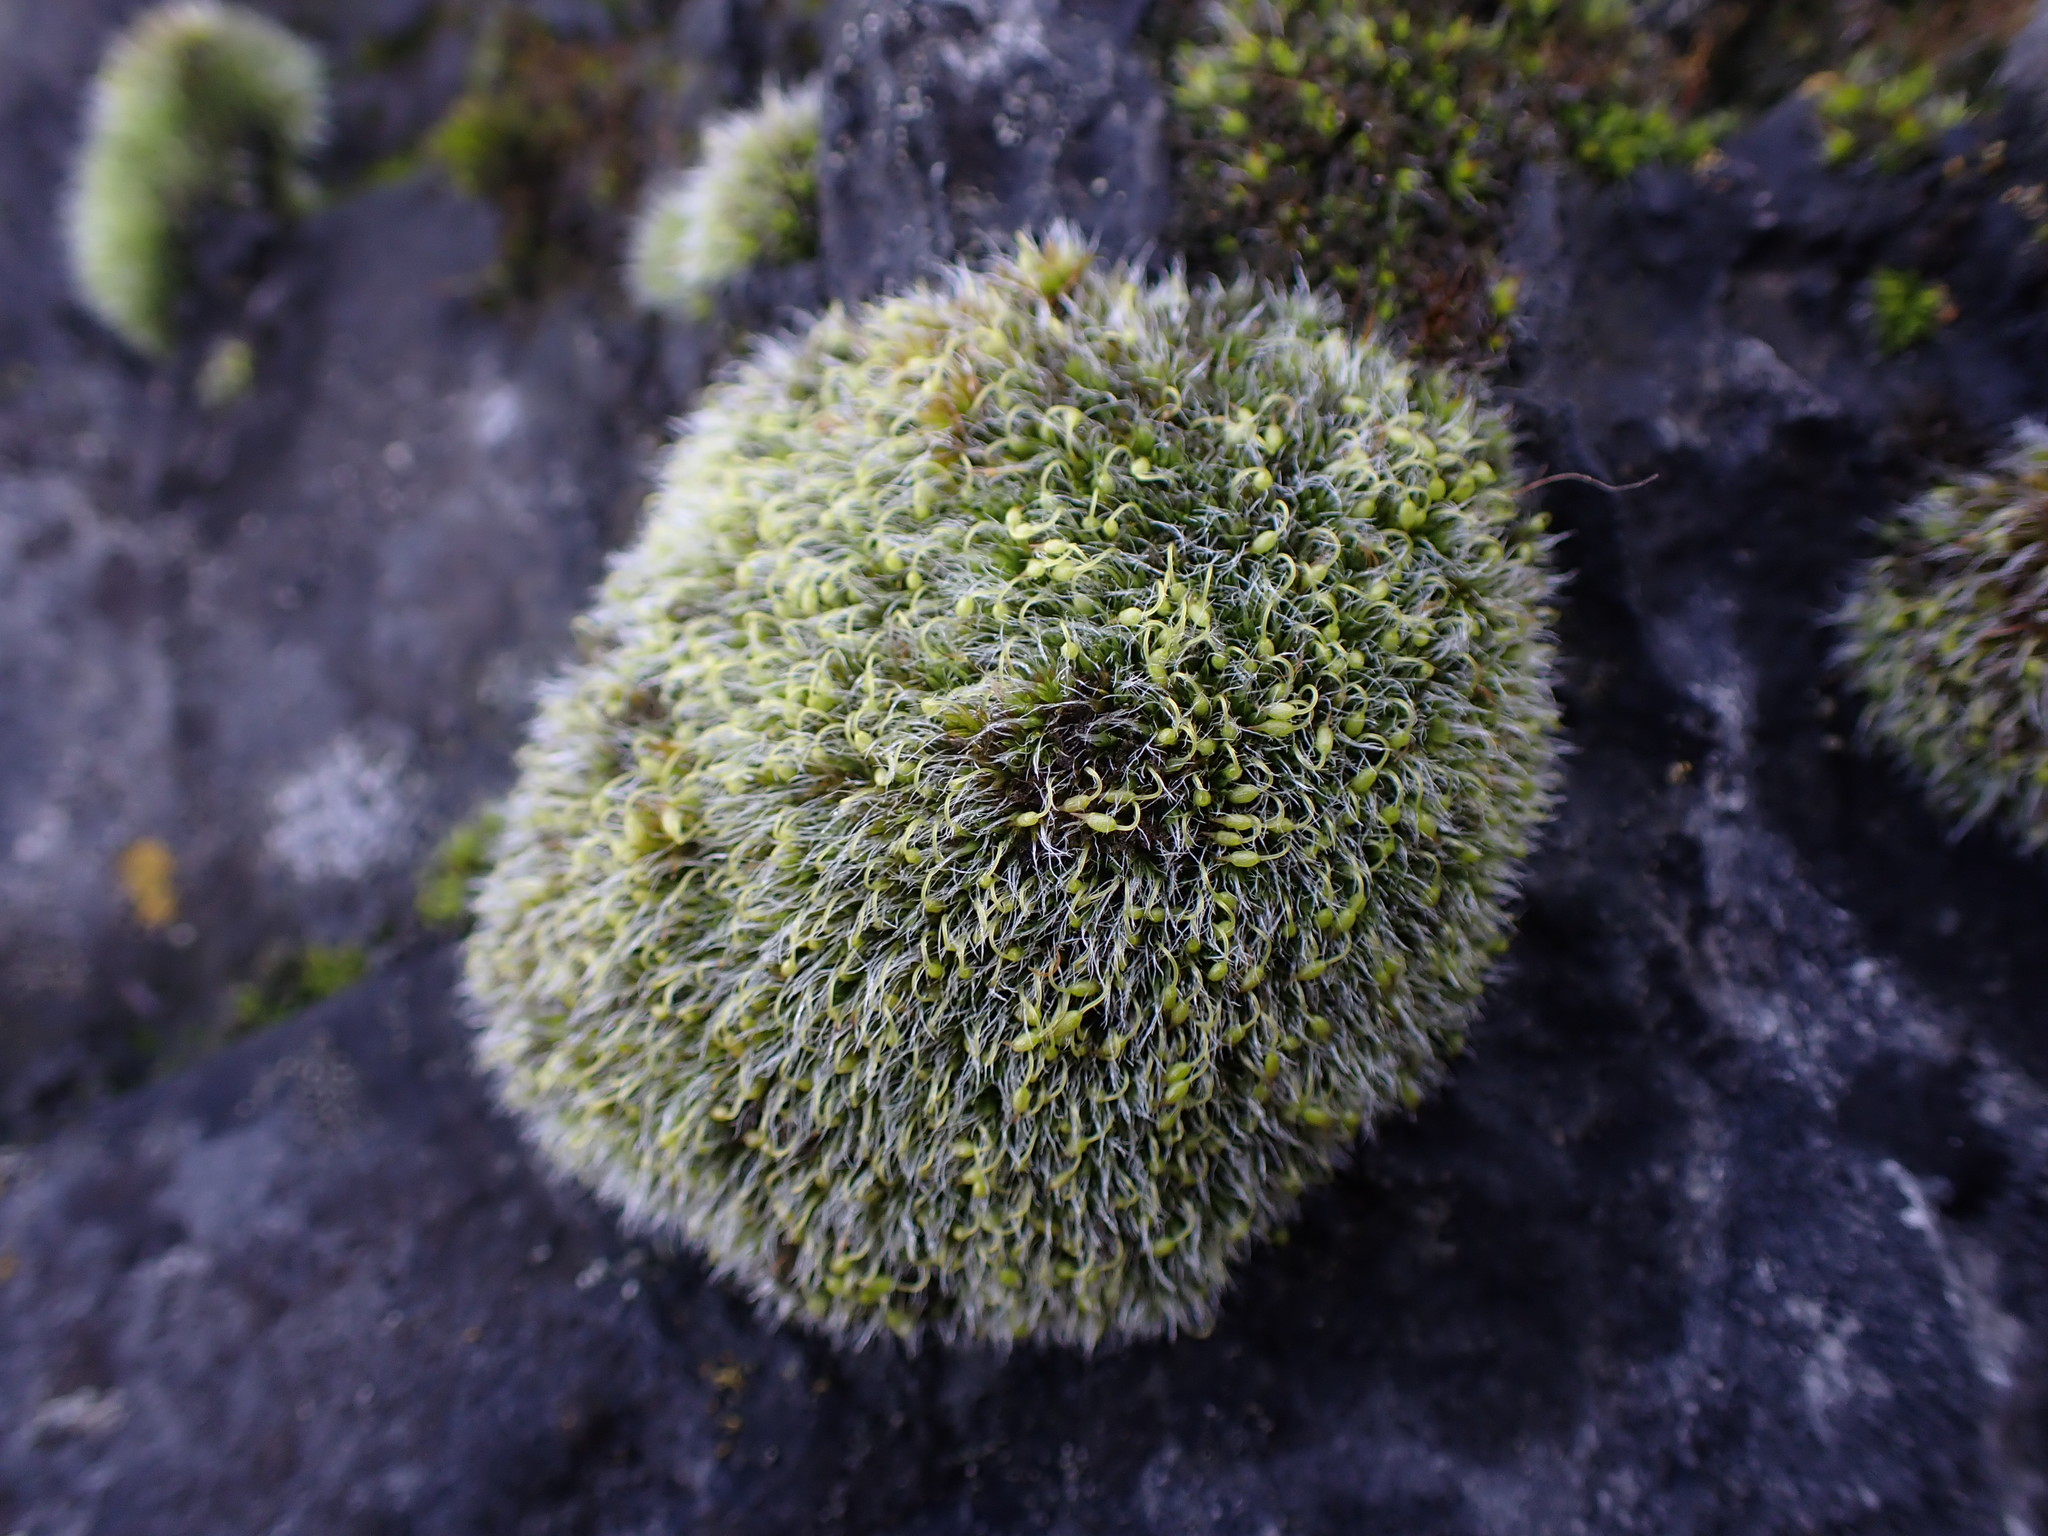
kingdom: Plantae
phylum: Bryophyta
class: Bryopsida
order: Grimmiales
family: Grimmiaceae
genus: Grimmia
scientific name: Grimmia pulvinata
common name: Grey-cushioned grimmia
